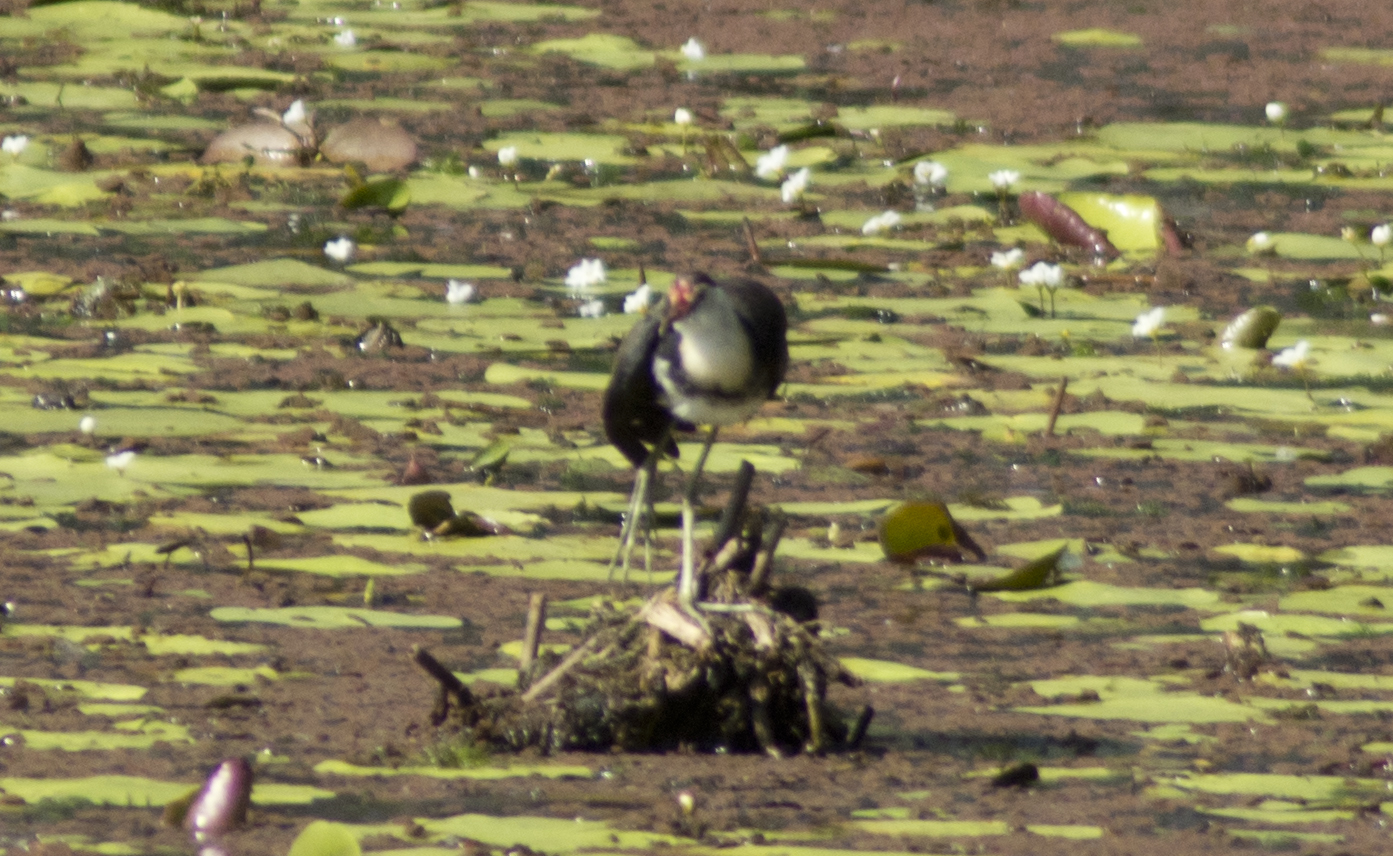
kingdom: Animalia
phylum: Chordata
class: Aves
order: Charadriiformes
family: Jacanidae
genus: Irediparra
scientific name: Irediparra gallinacea
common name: Comb-crested jacana
